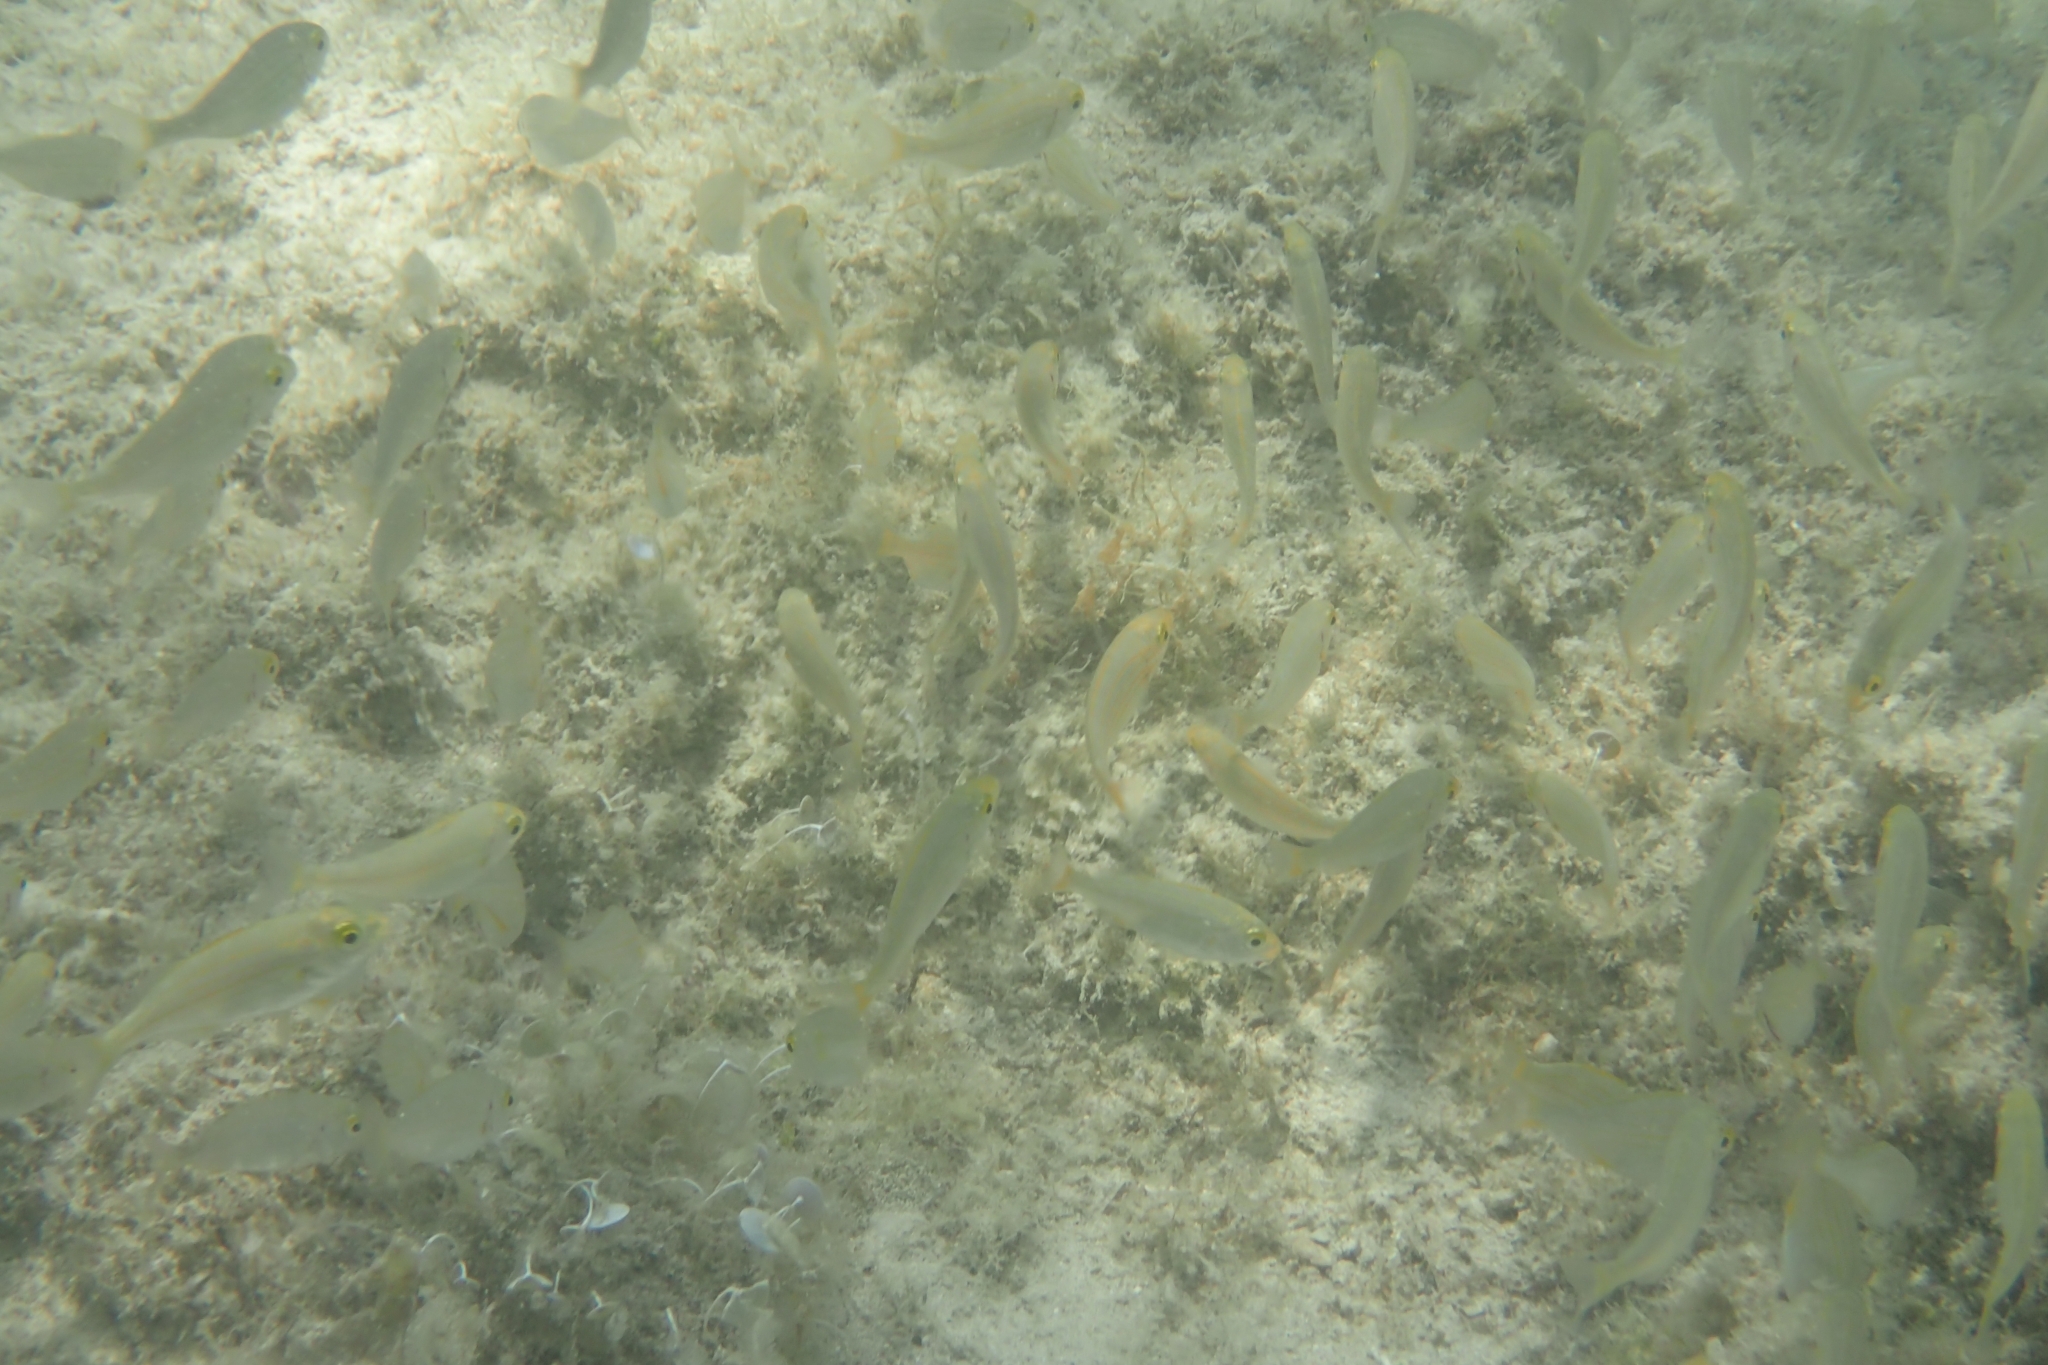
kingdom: Animalia
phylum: Chordata
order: Perciformes
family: Sparidae
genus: Sarpa
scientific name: Sarpa salpa
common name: Salema
